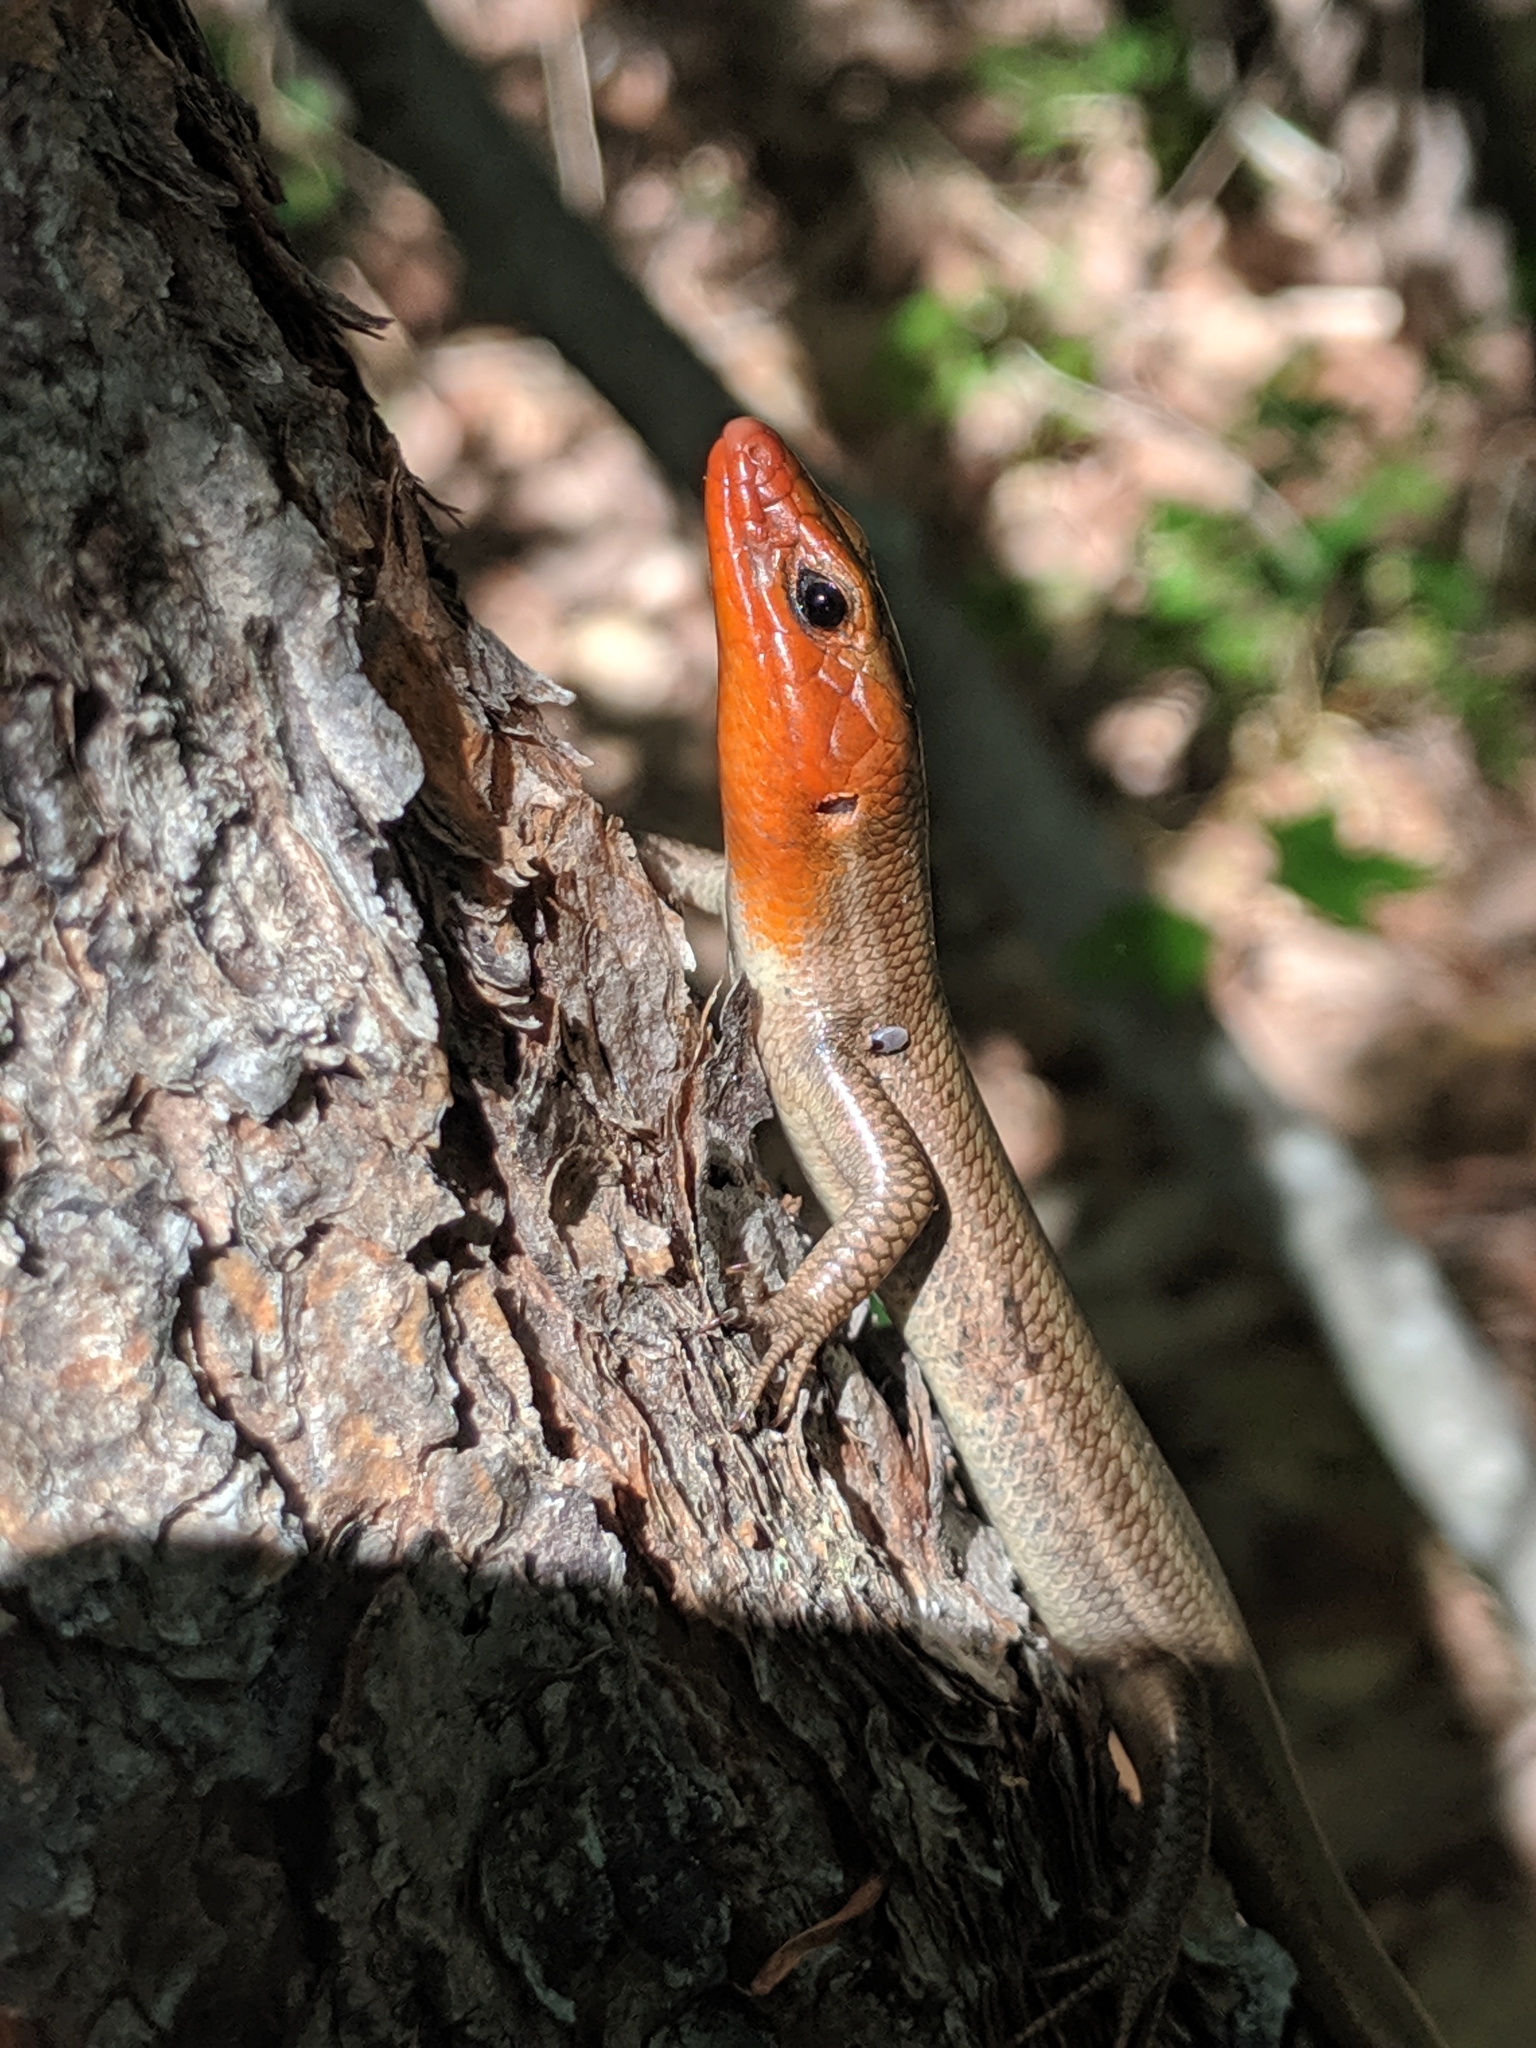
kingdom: Animalia
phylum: Chordata
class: Squamata
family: Scincidae
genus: Plestiodon
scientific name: Plestiodon fasciatus
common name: Five-lined skink
